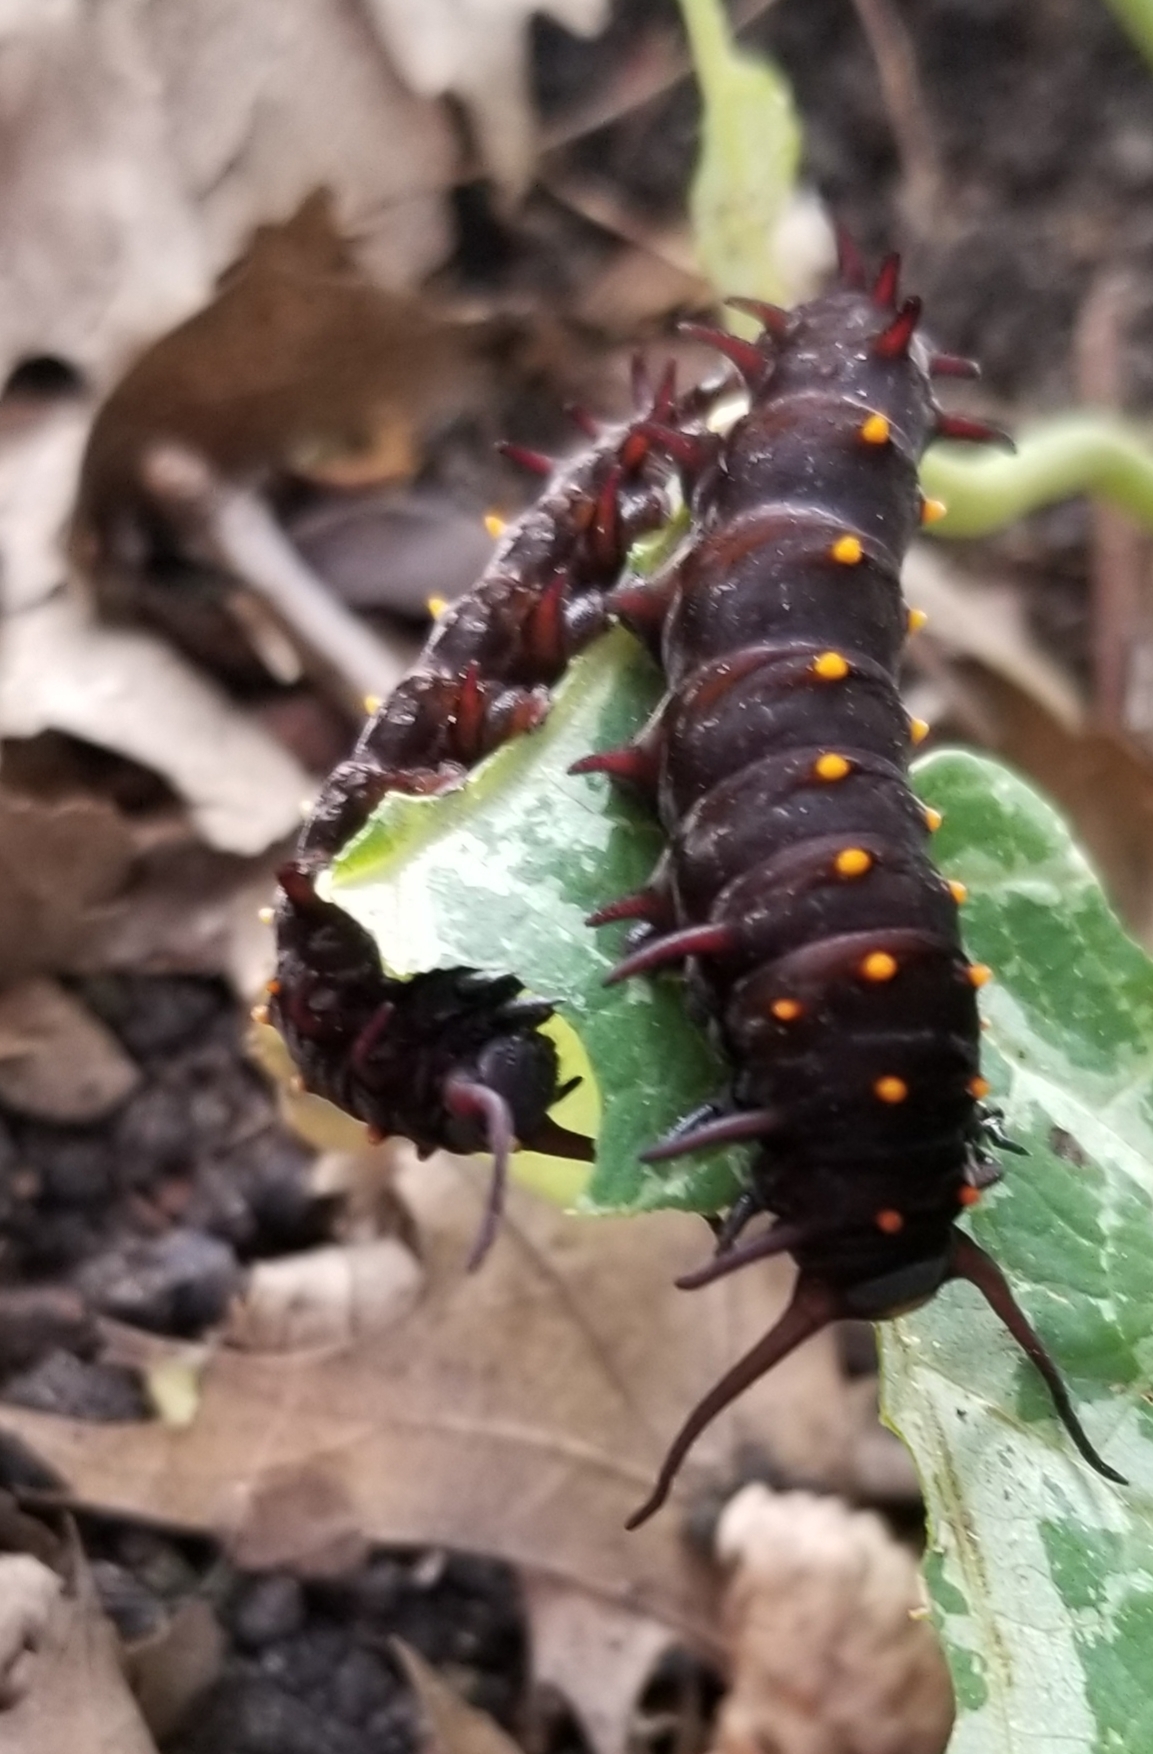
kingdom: Animalia
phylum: Arthropoda
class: Insecta
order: Lepidoptera
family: Papilionidae
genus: Battus
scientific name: Battus philenor
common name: Pipevine swallowtail
